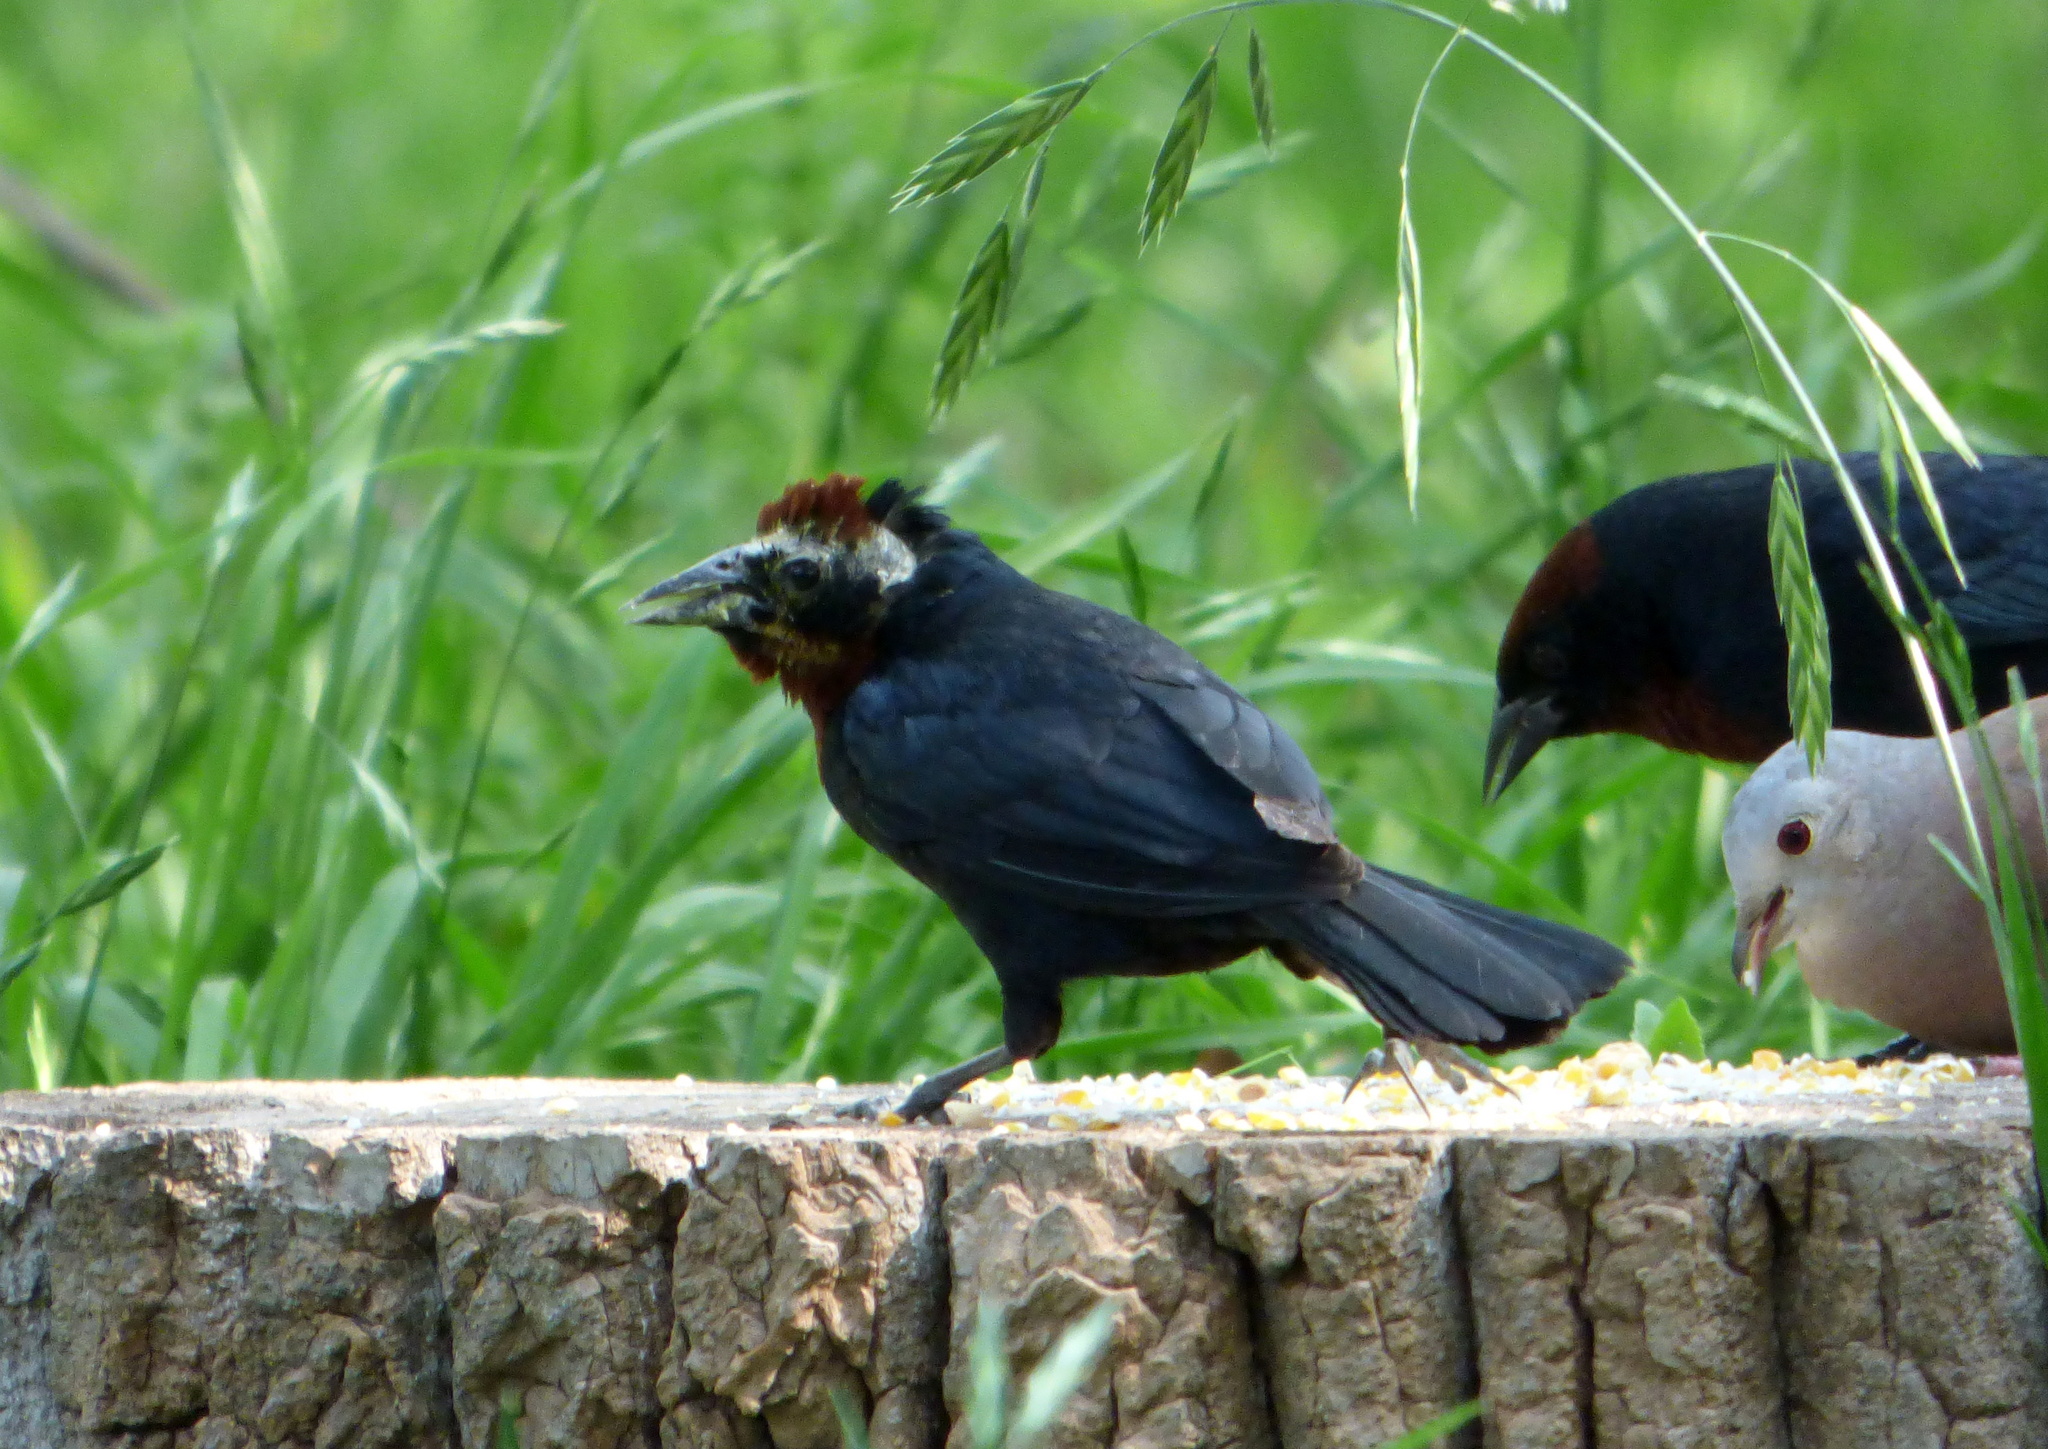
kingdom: Animalia
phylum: Chordata
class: Aves
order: Passeriformes
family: Icteridae
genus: Chrysomus
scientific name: Chrysomus ruficapillus
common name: Chestnut-capped blackbird
